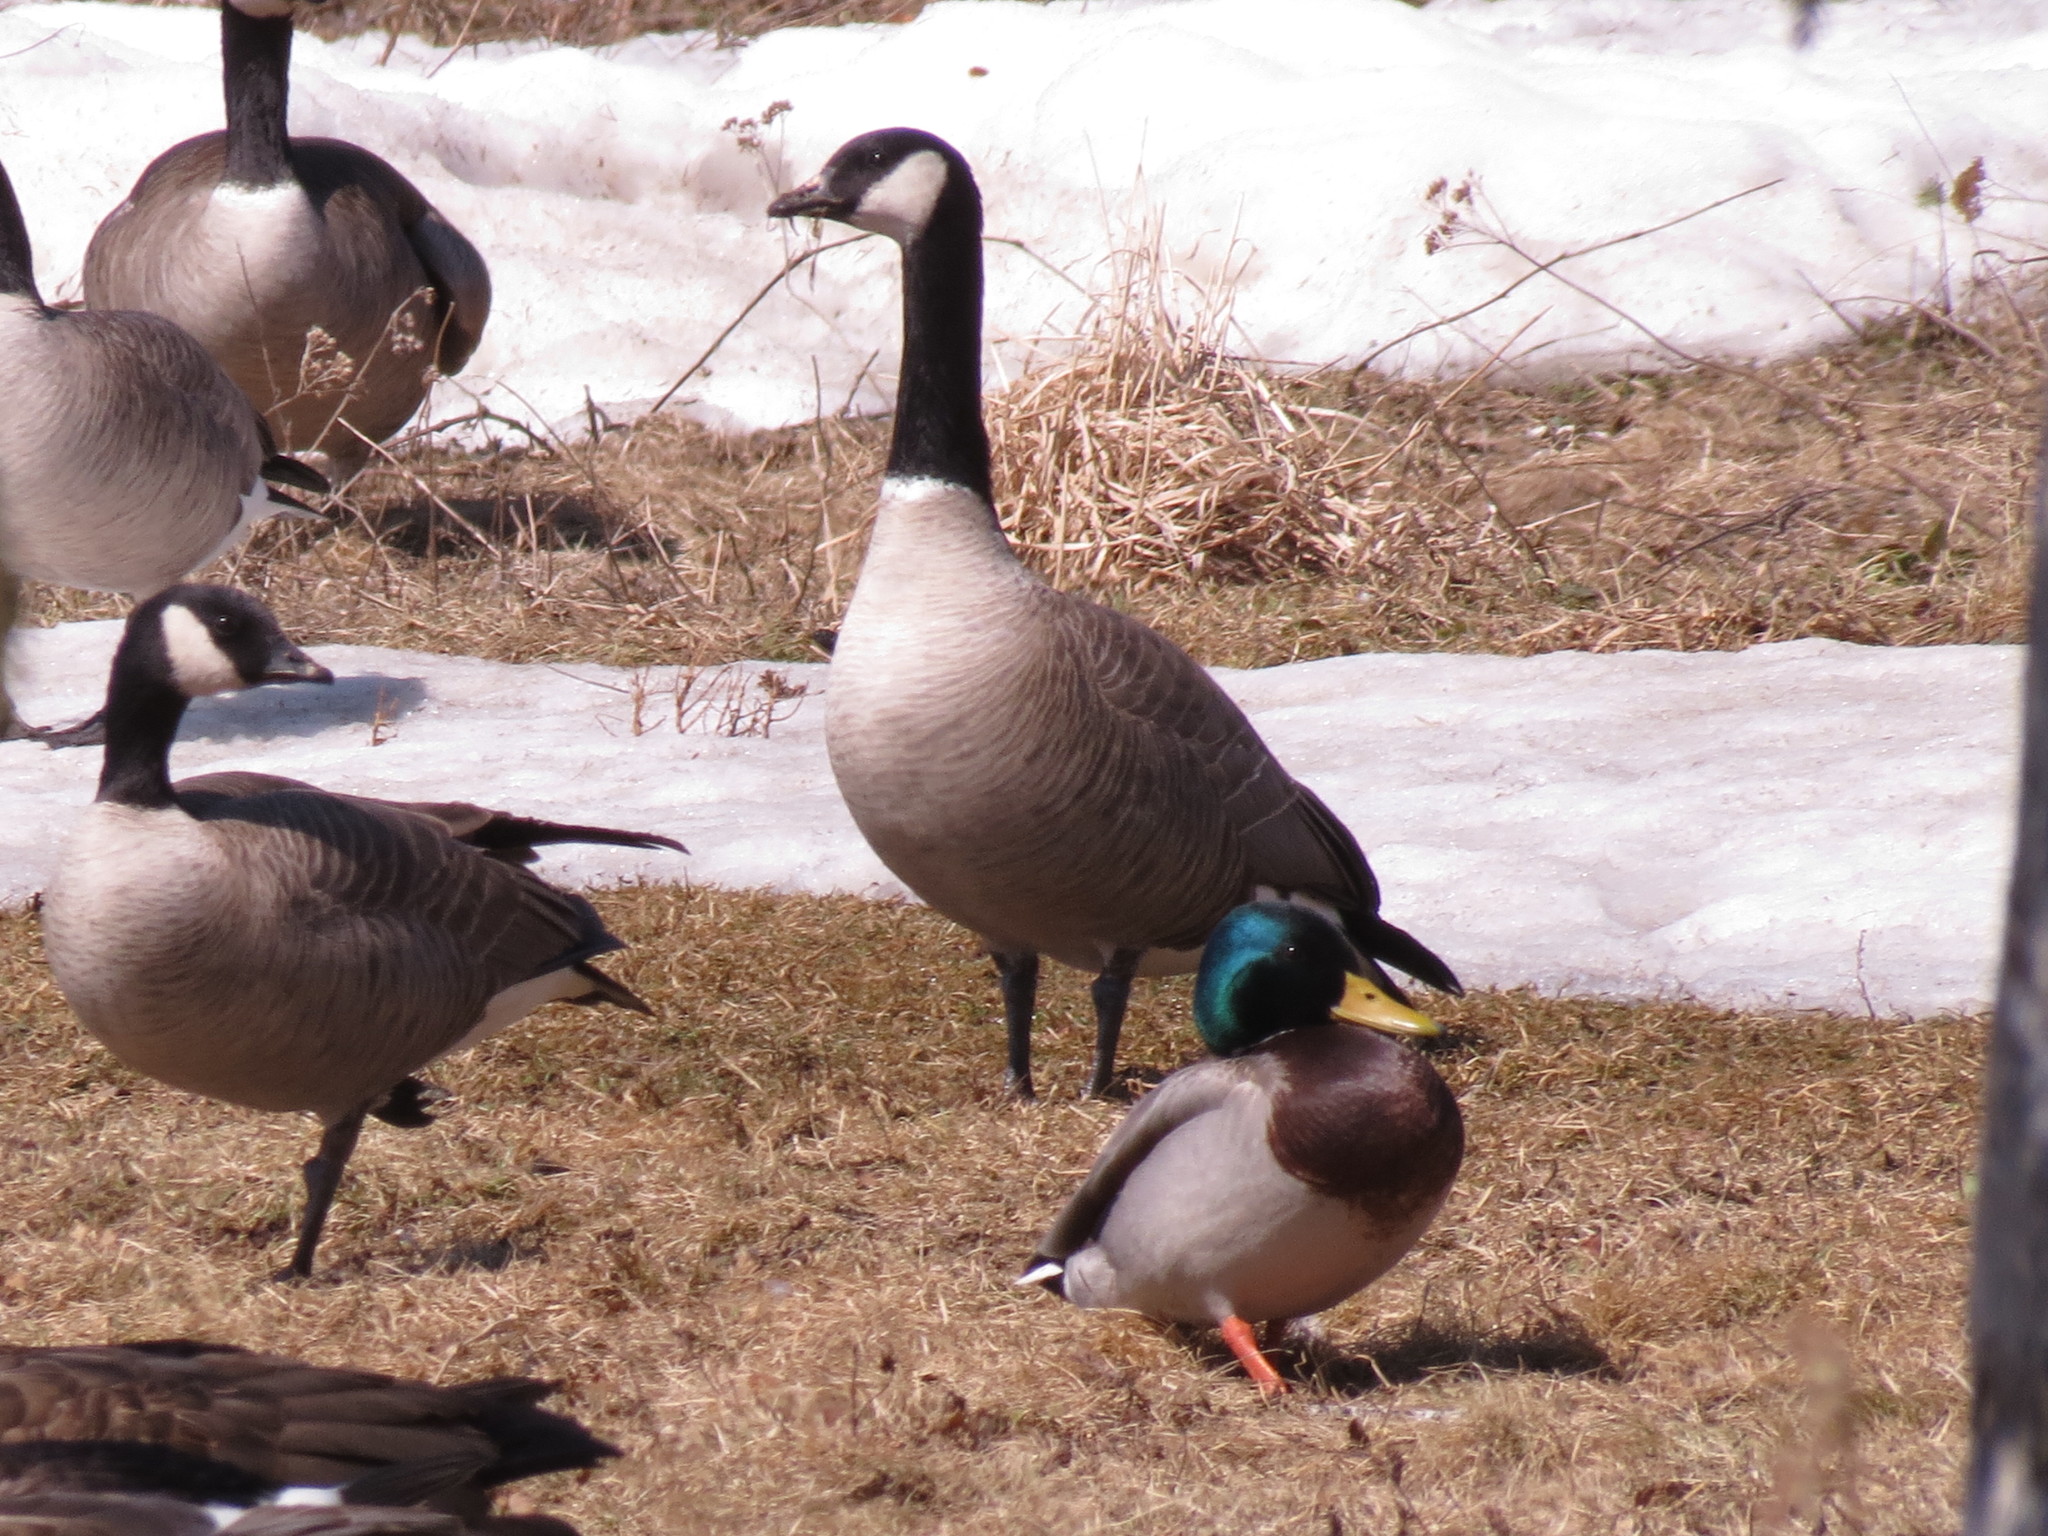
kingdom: Animalia
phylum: Chordata
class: Aves
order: Anseriformes
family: Anatidae
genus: Branta
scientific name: Branta hutchinsii
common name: Cackling goose
